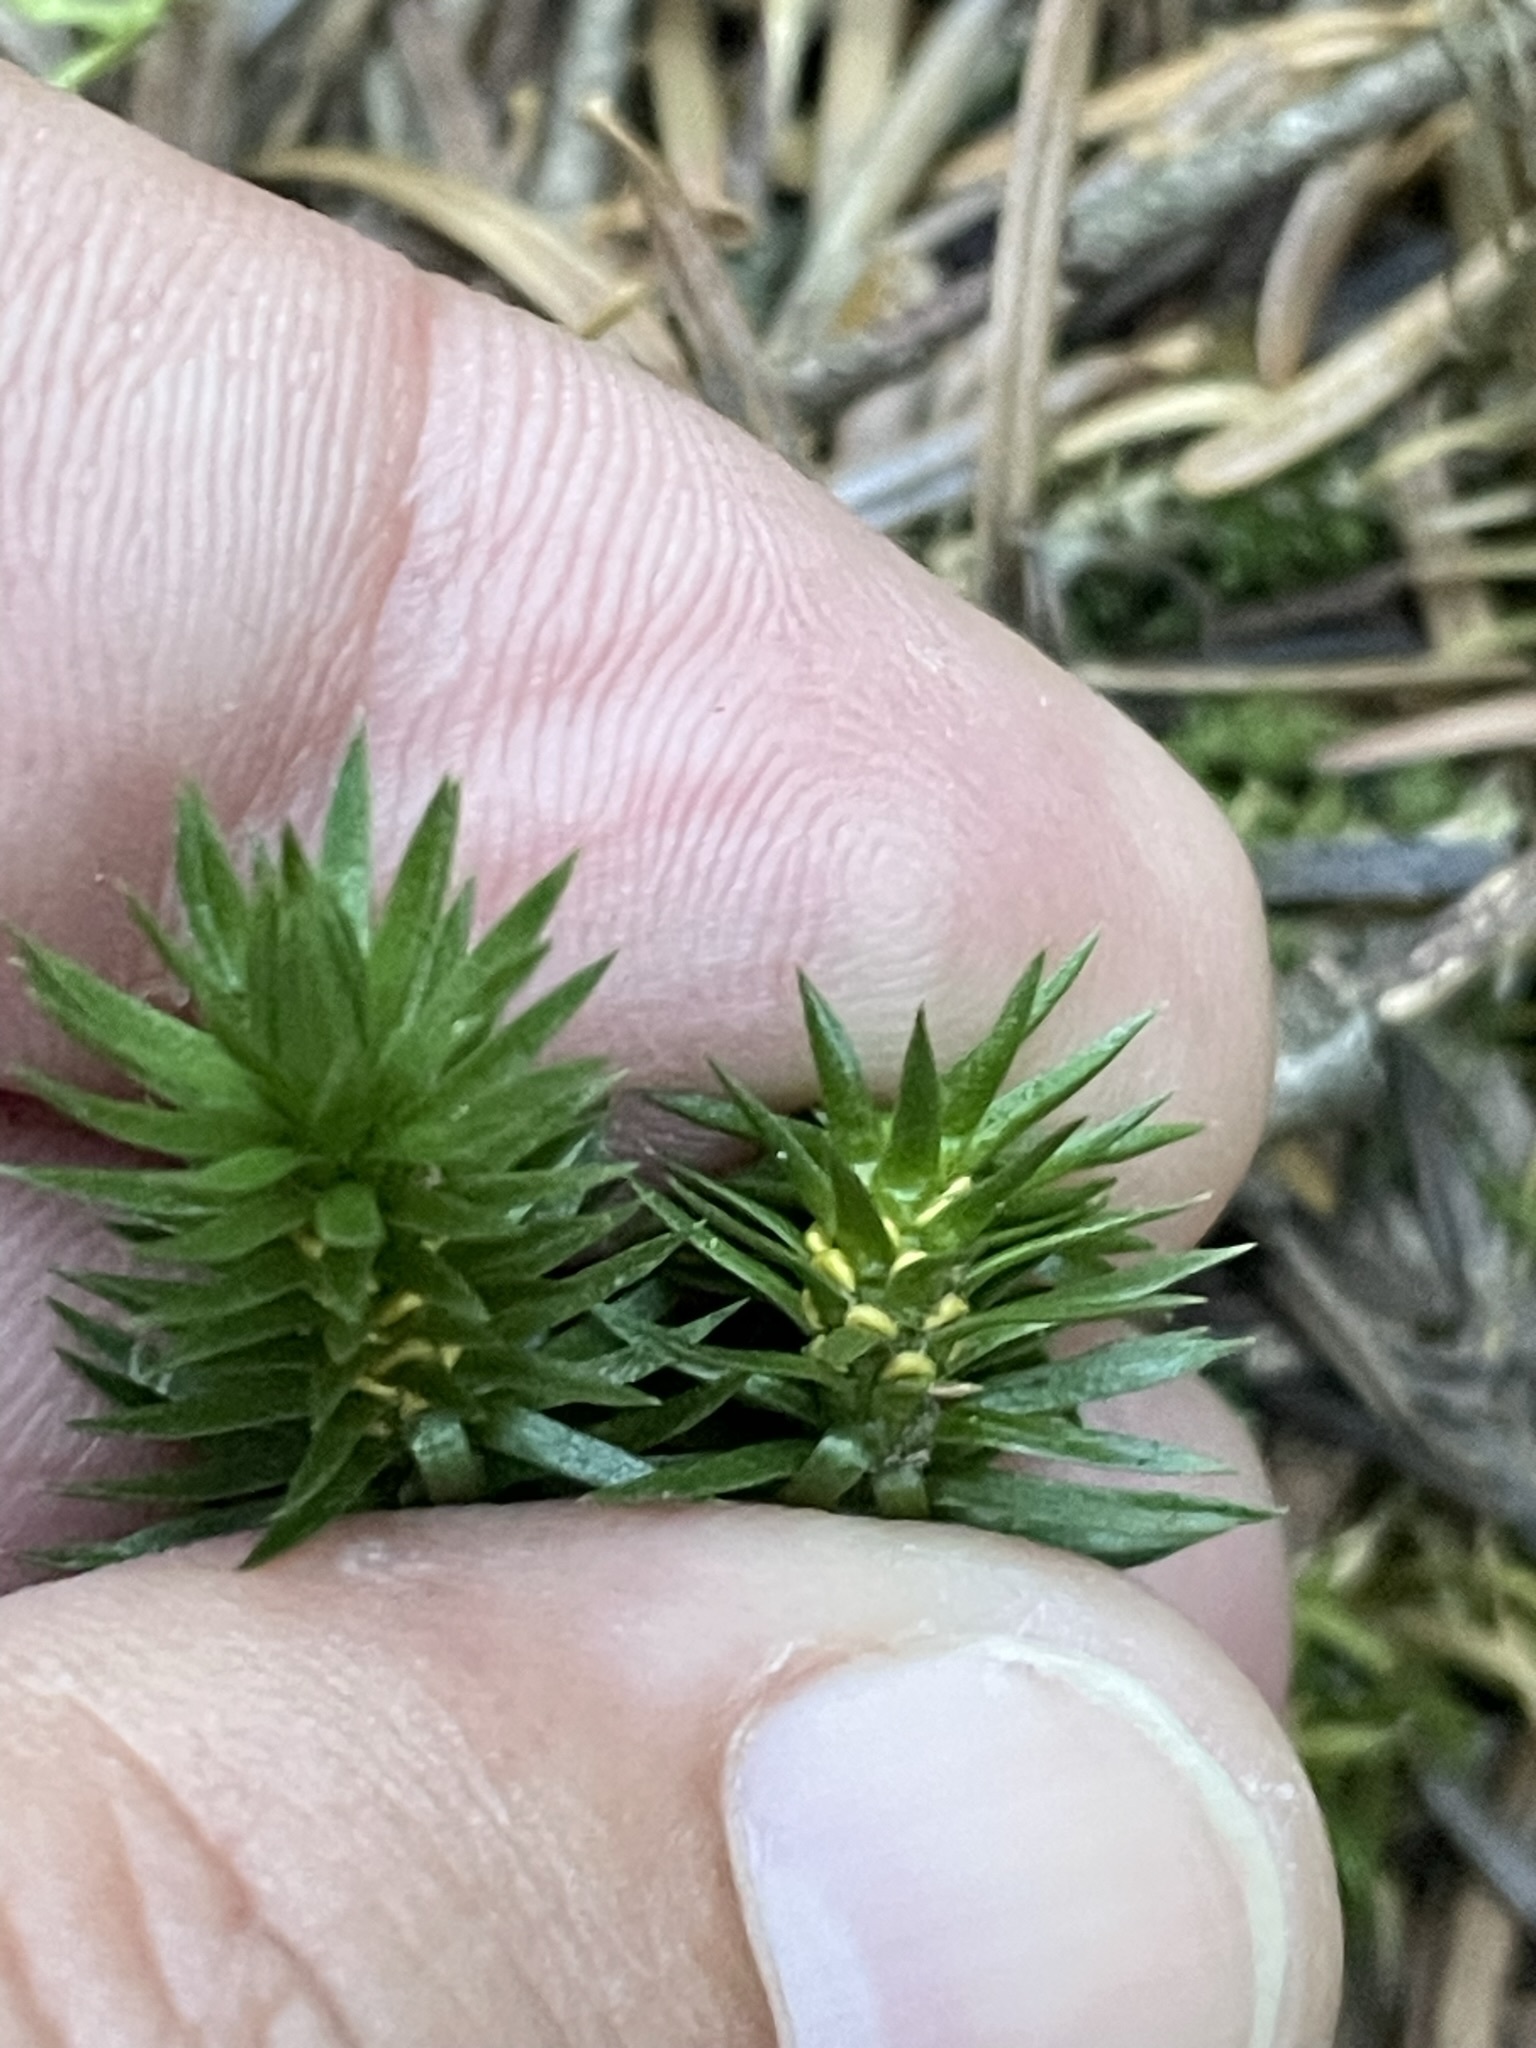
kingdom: Plantae
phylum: Tracheophyta
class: Lycopodiopsida
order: Lycopodiales
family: Lycopodiaceae
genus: Huperzia
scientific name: Huperzia selago
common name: Northern firmoss
